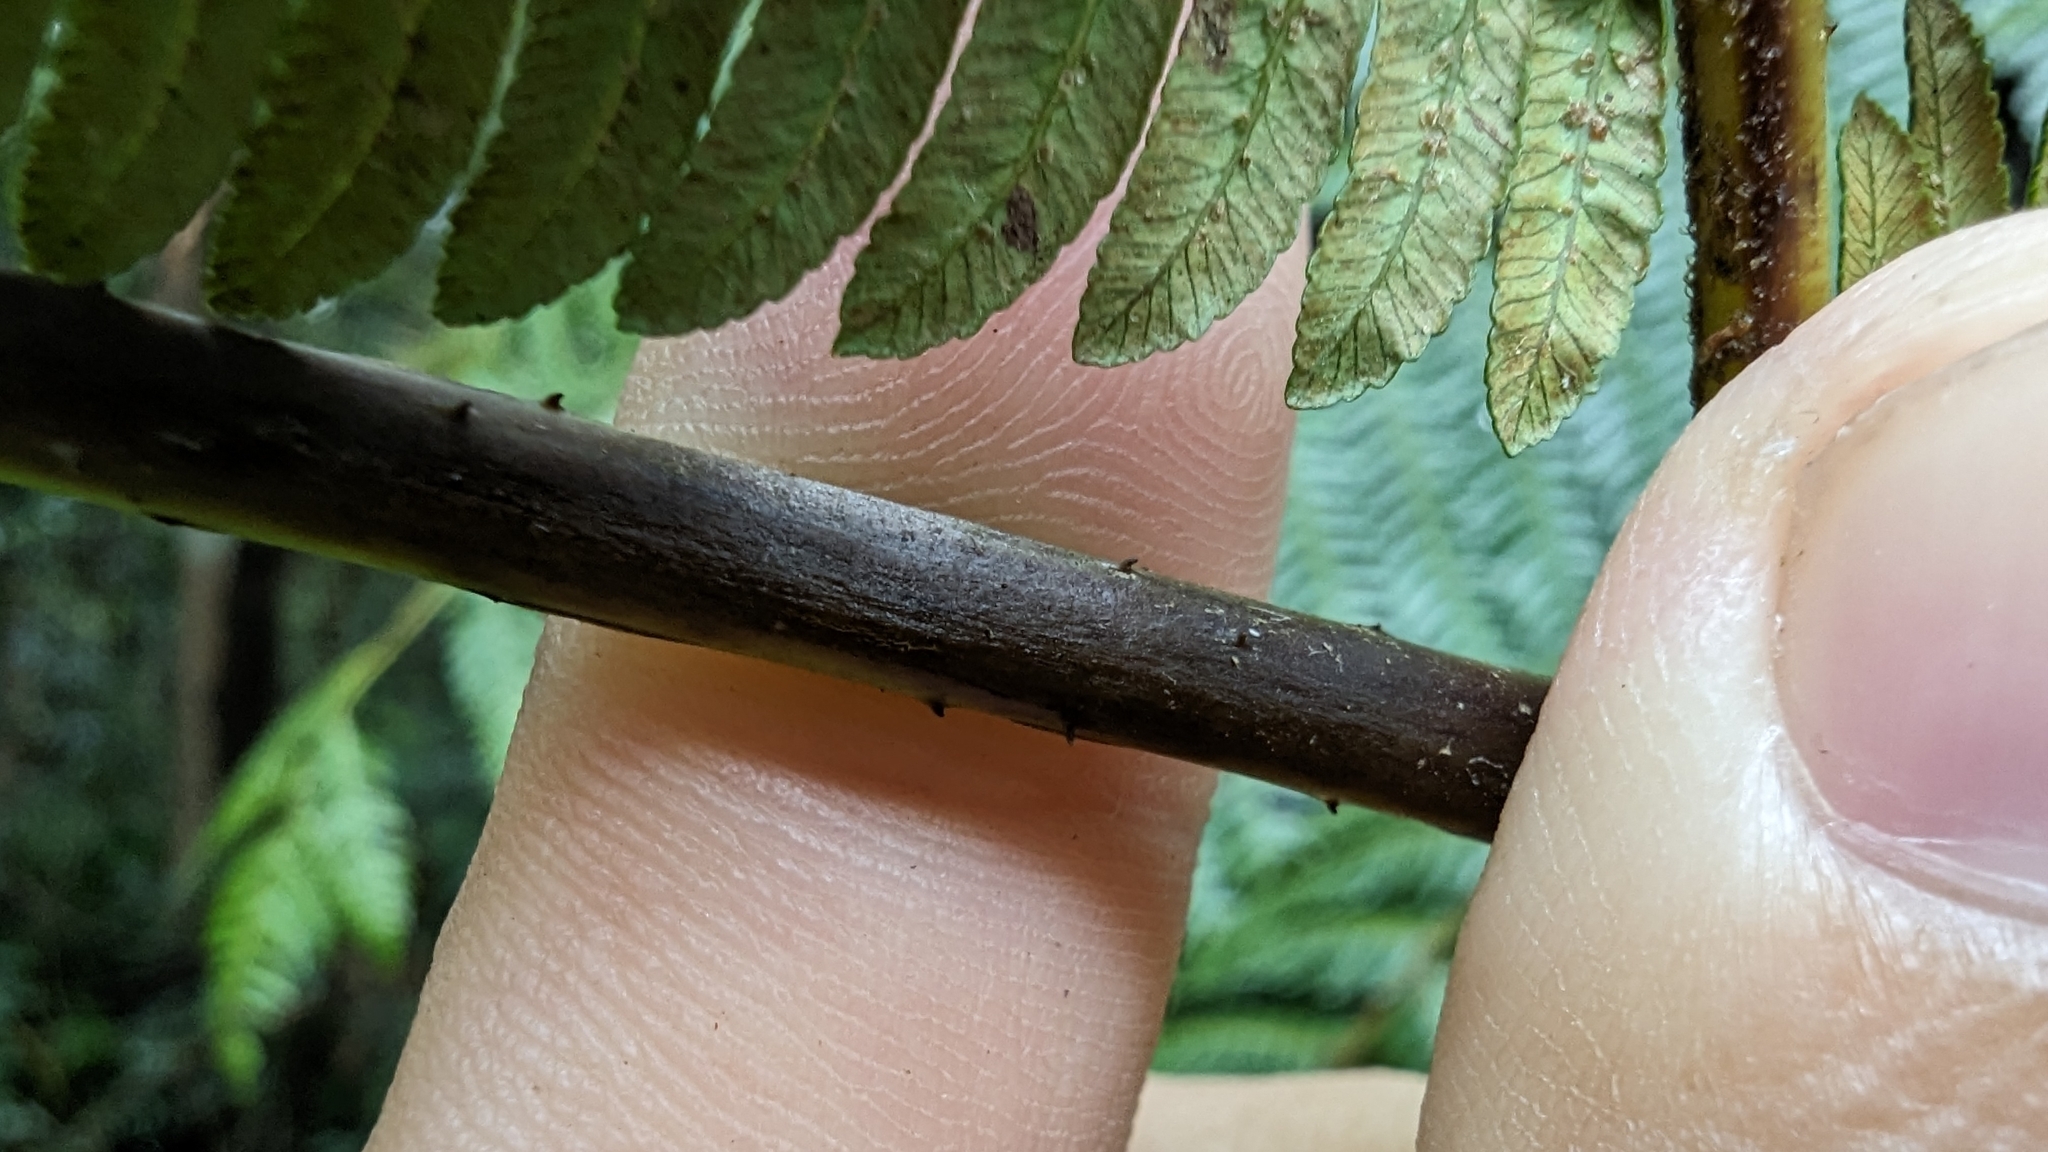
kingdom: Plantae
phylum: Tracheophyta
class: Polypodiopsida
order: Cyatheales
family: Cyatheaceae
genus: Alsophila
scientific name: Alsophila spinulosa
